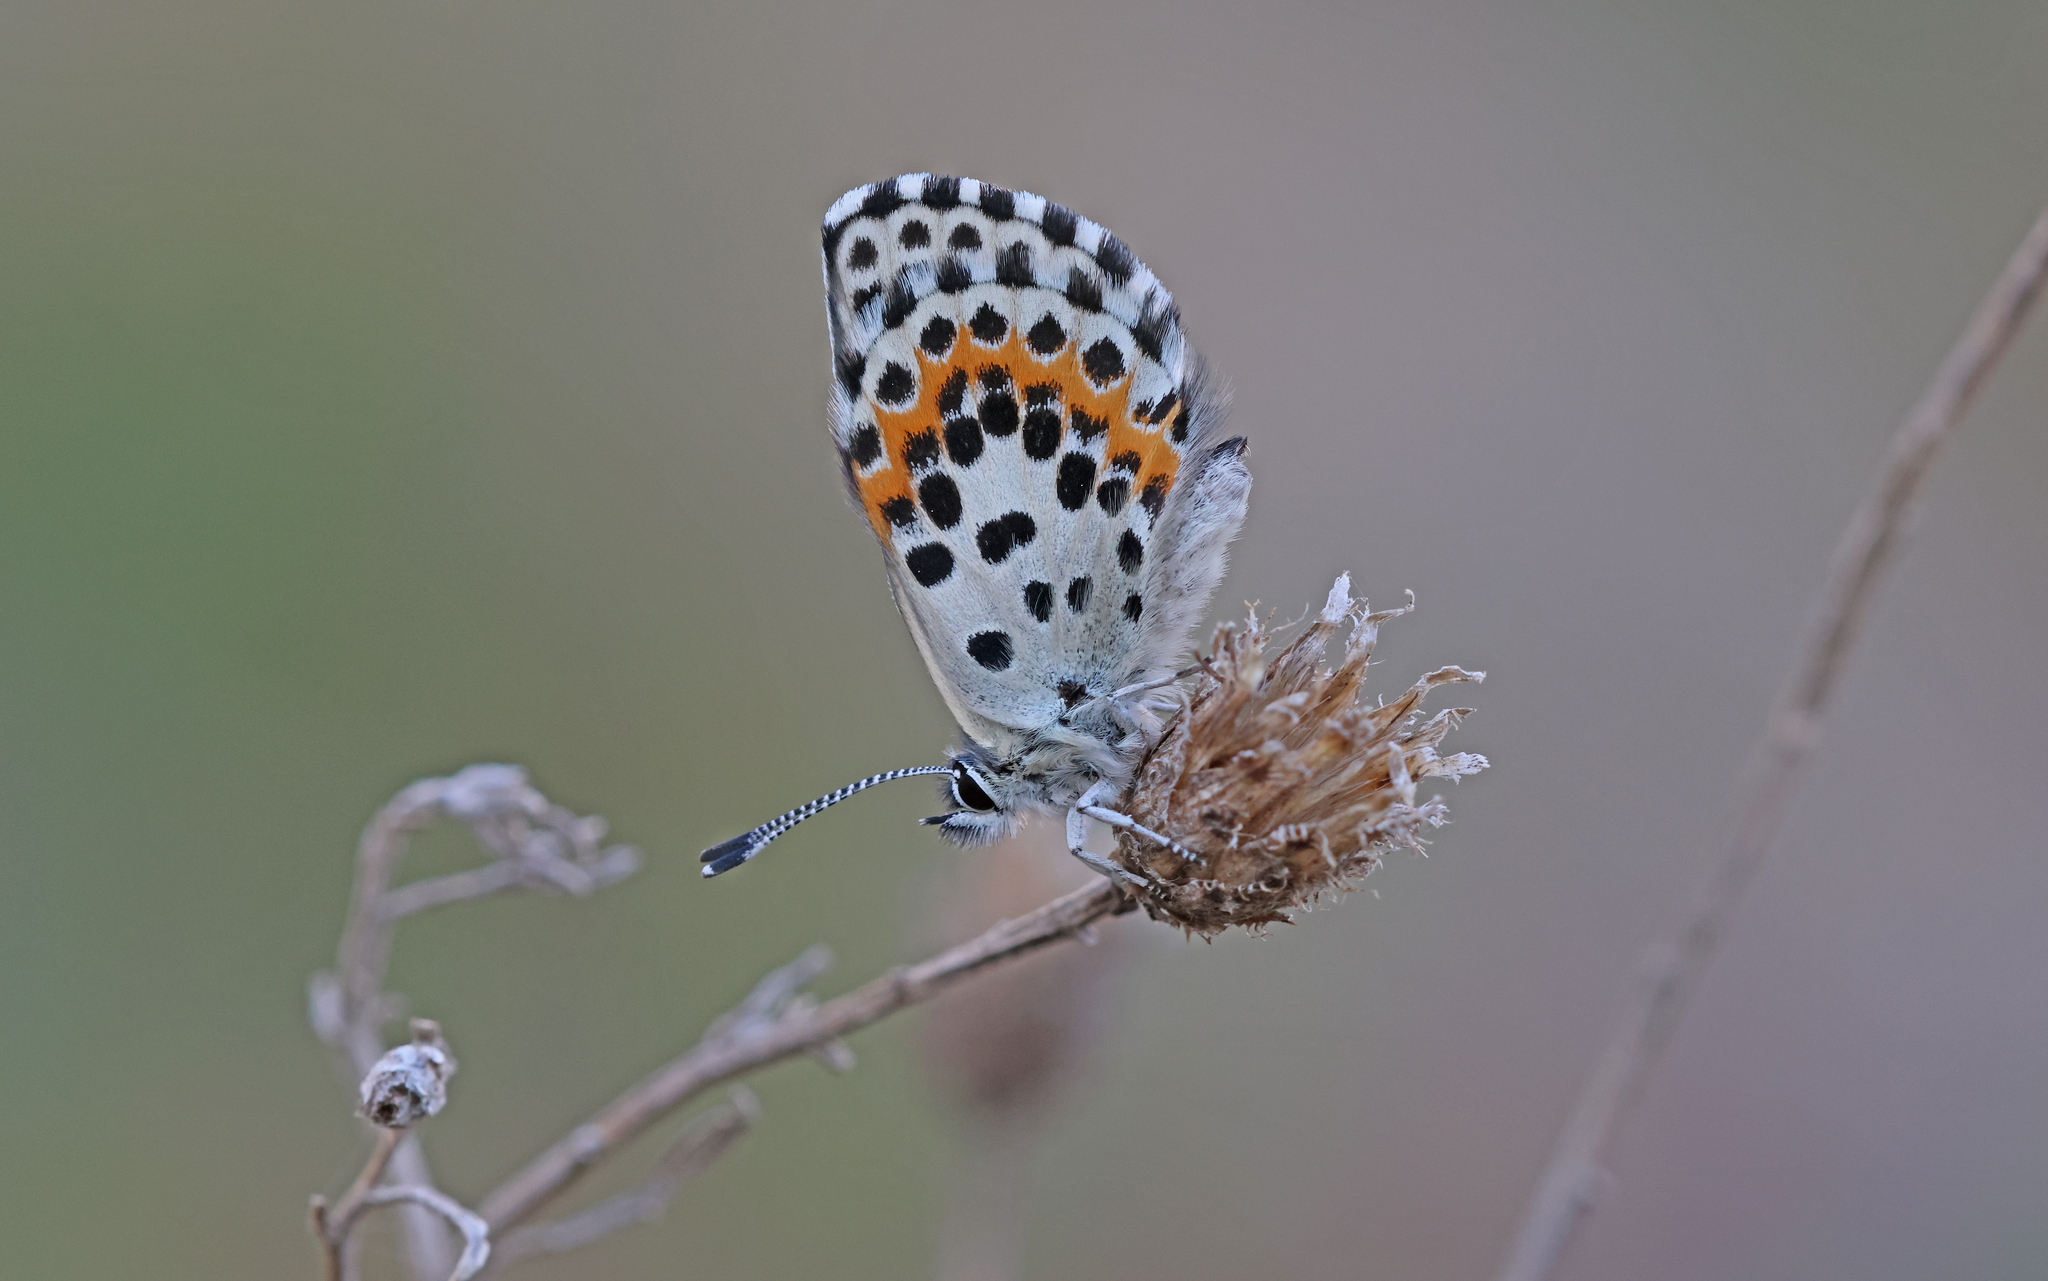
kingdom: Animalia
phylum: Arthropoda
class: Insecta
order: Lepidoptera
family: Lycaenidae
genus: Scolitantides
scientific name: Scolitantides orion
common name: Chequered blue
